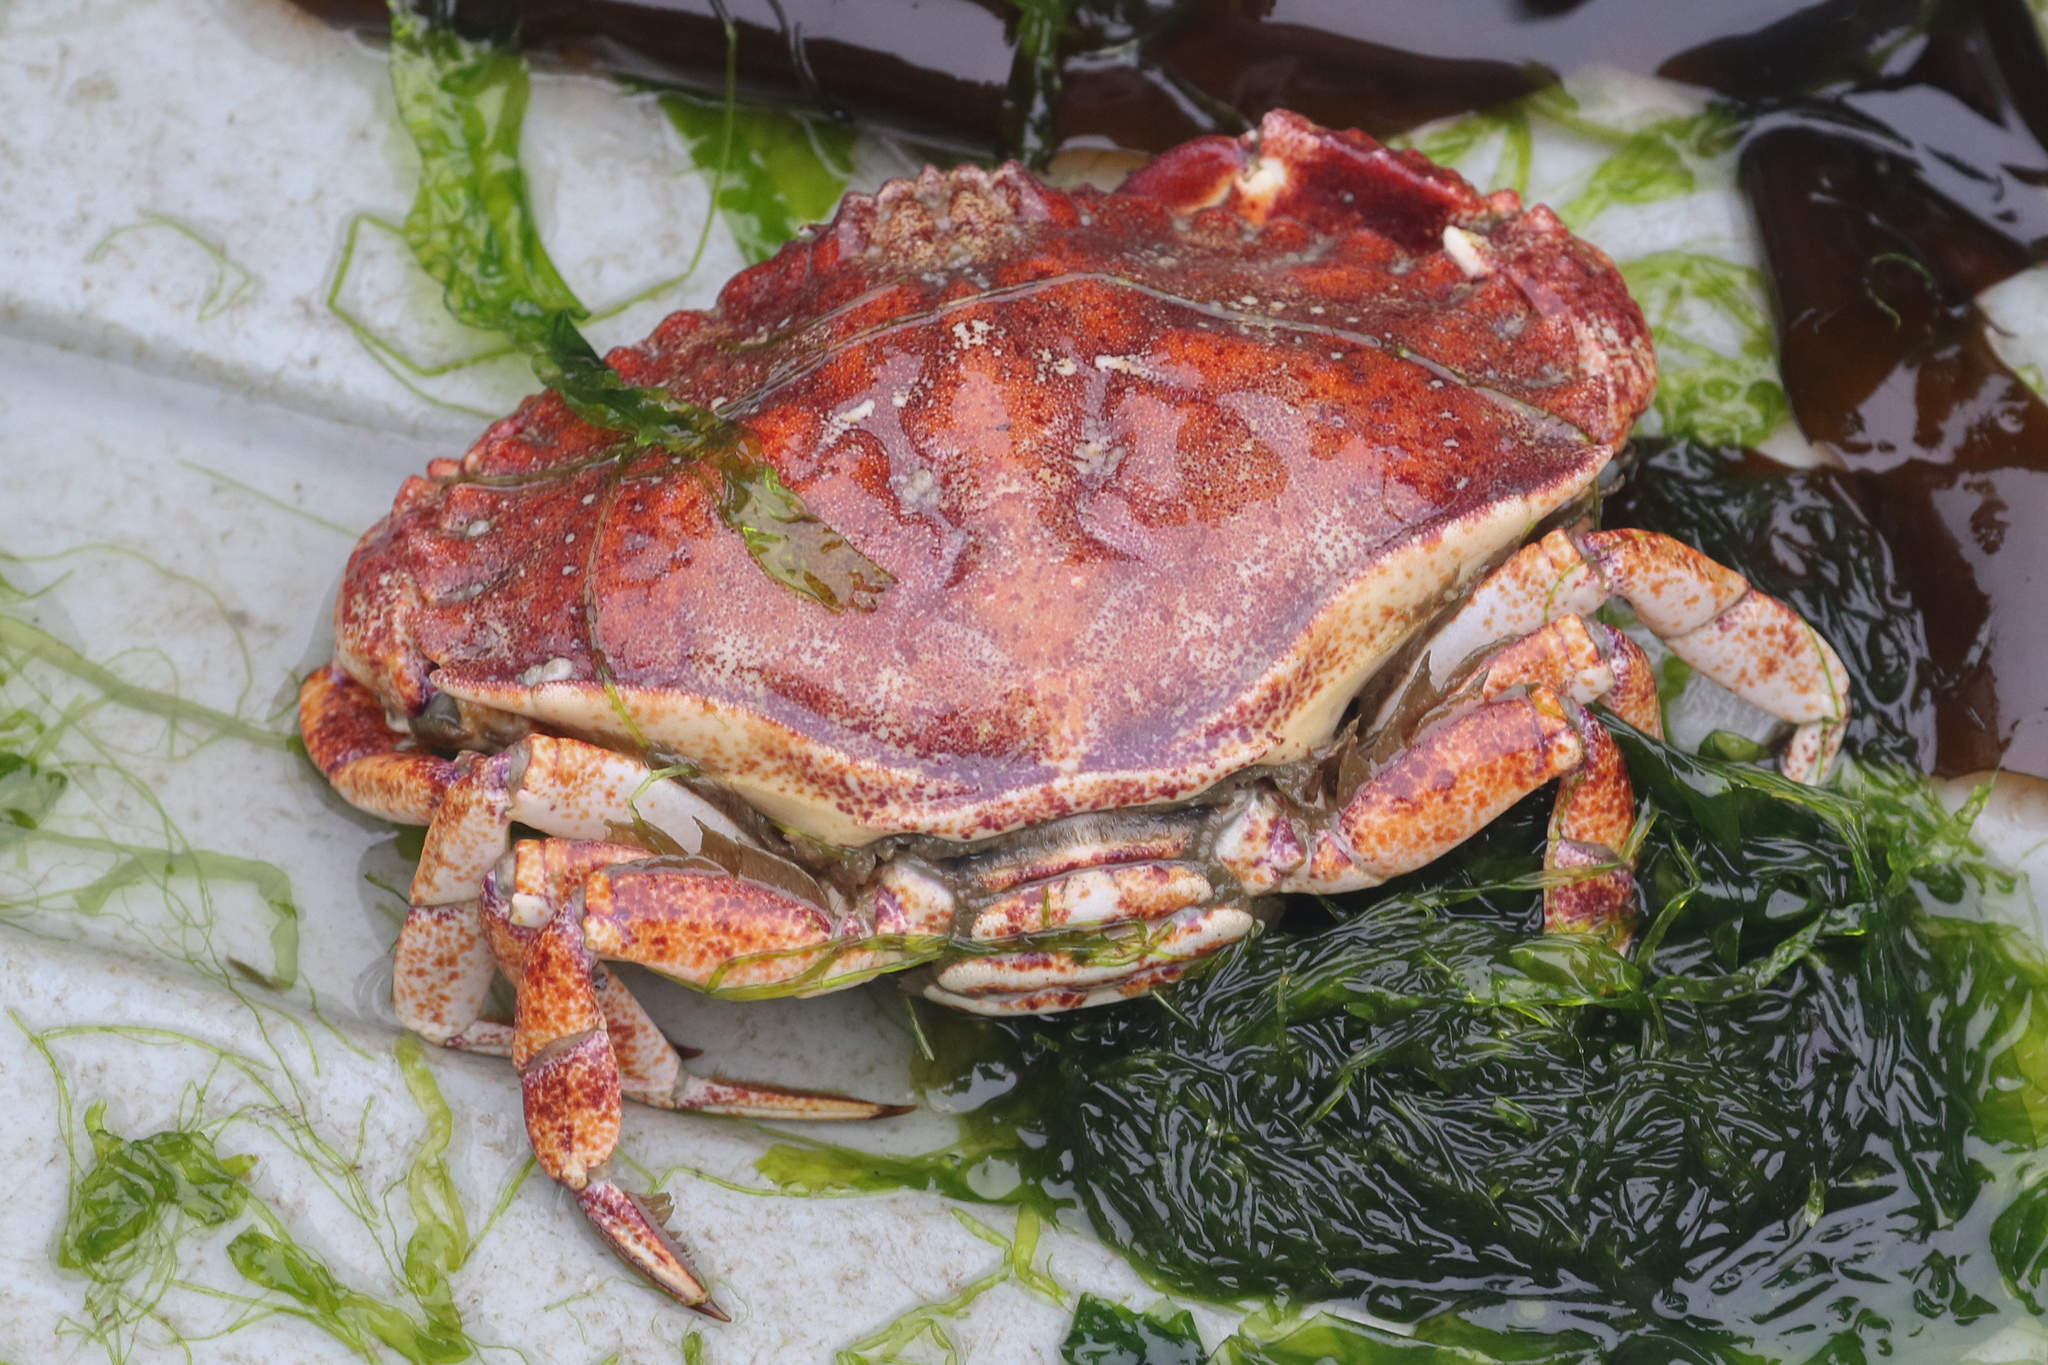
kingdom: Animalia
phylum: Arthropoda
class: Malacostraca
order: Decapoda
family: Cancridae
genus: Cancer
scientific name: Cancer productus
